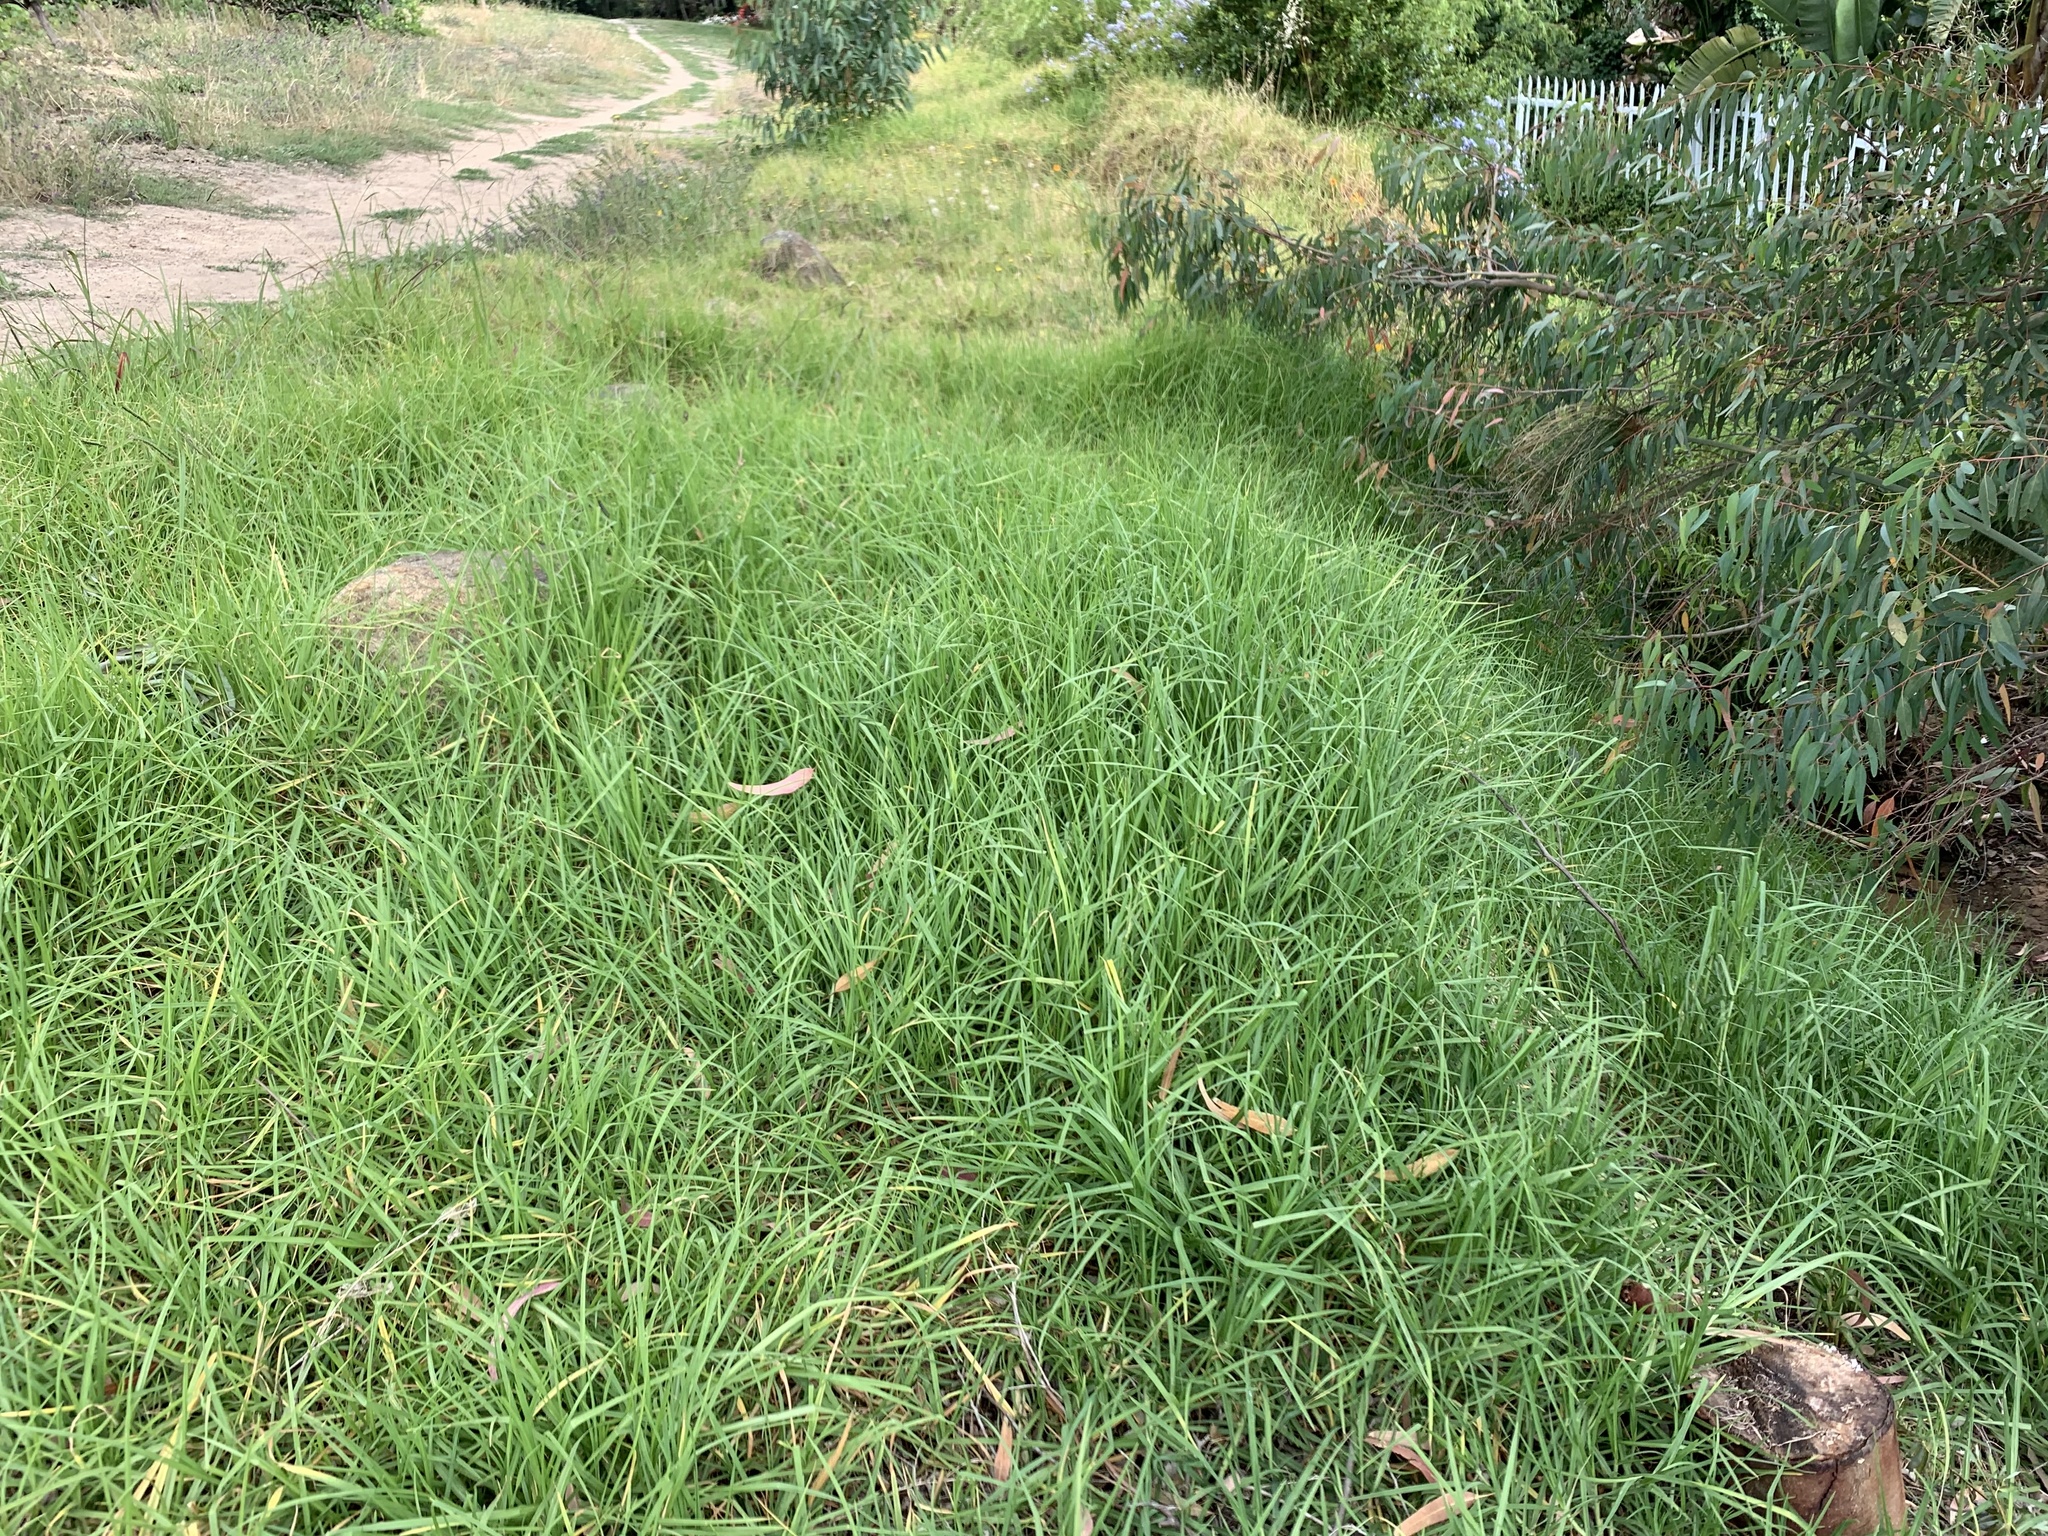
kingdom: Plantae
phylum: Tracheophyta
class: Liliopsida
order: Poales
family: Poaceae
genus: Cenchrus
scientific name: Cenchrus clandestinus
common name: Kikuyugrass
